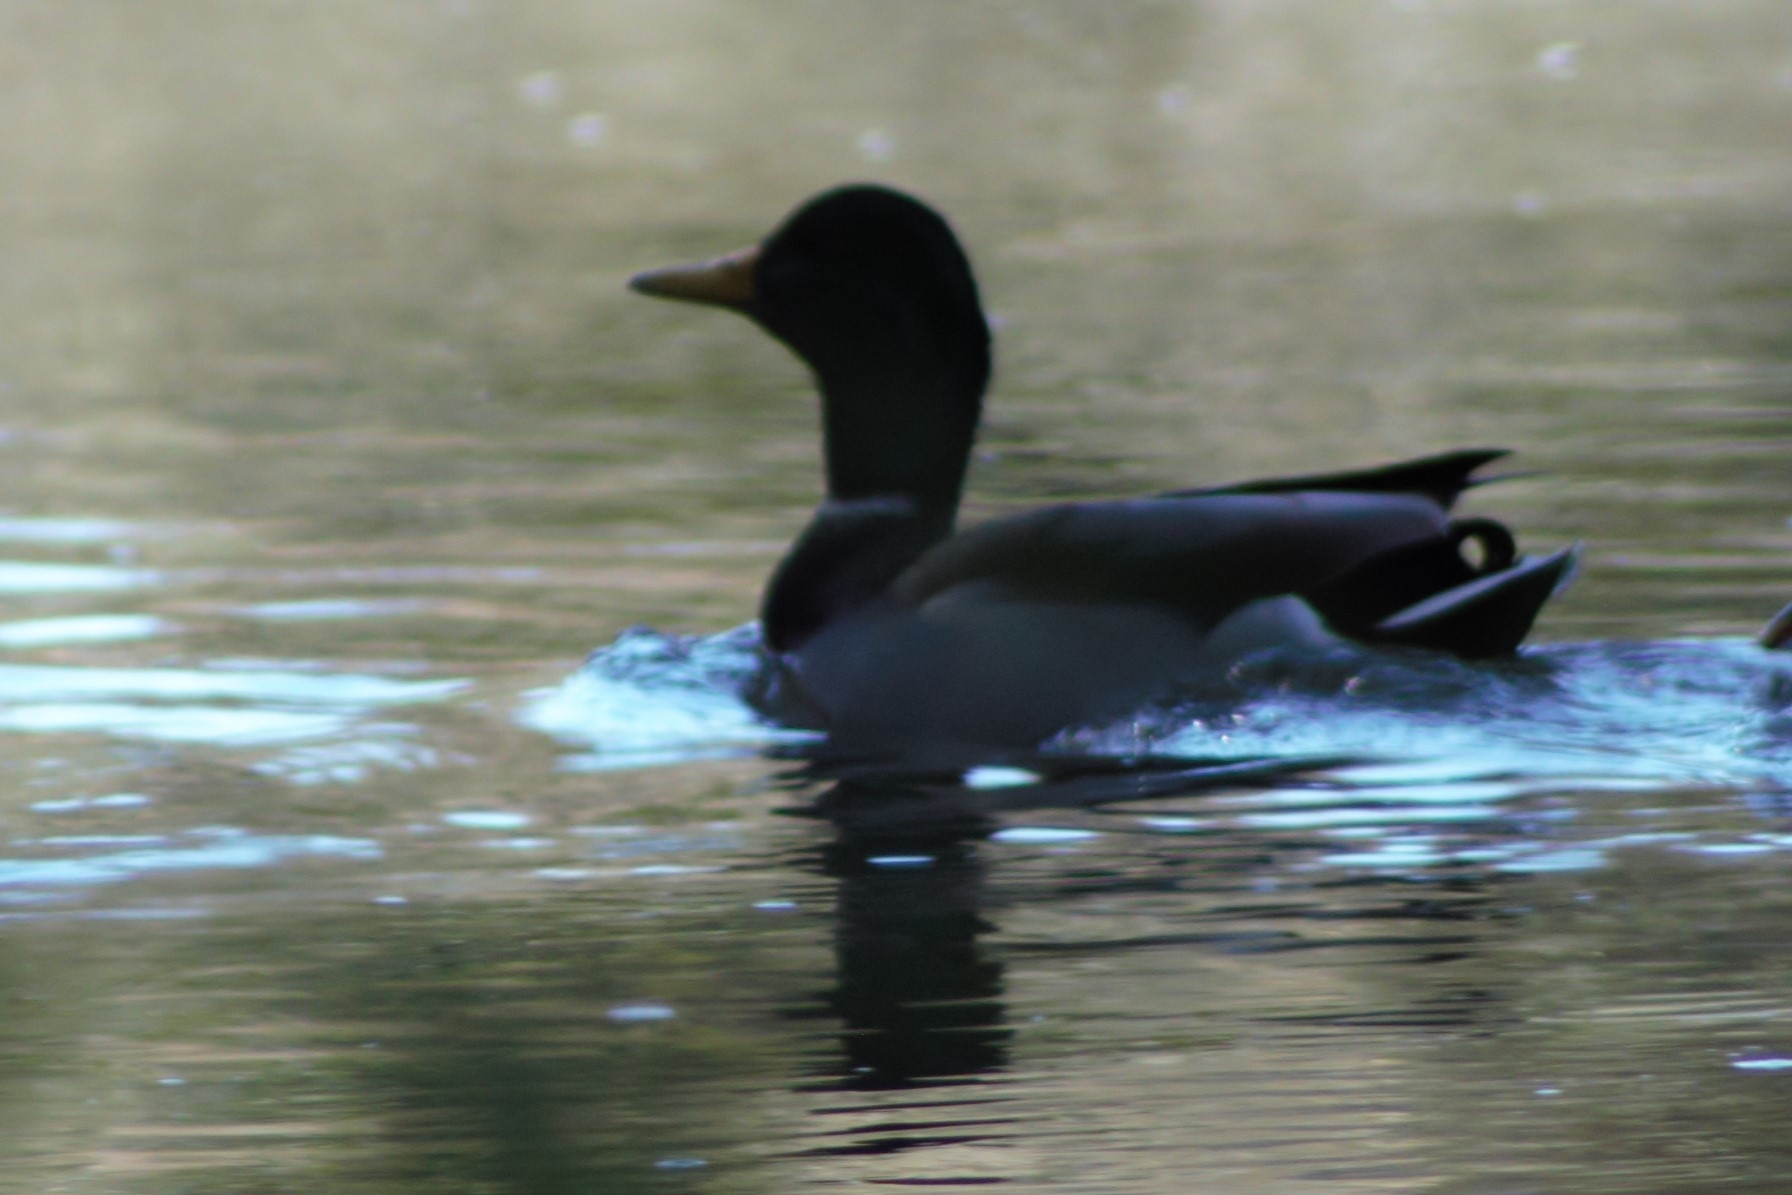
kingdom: Animalia
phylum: Chordata
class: Aves
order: Anseriformes
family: Anatidae
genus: Anas
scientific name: Anas platyrhynchos
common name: Mallard
